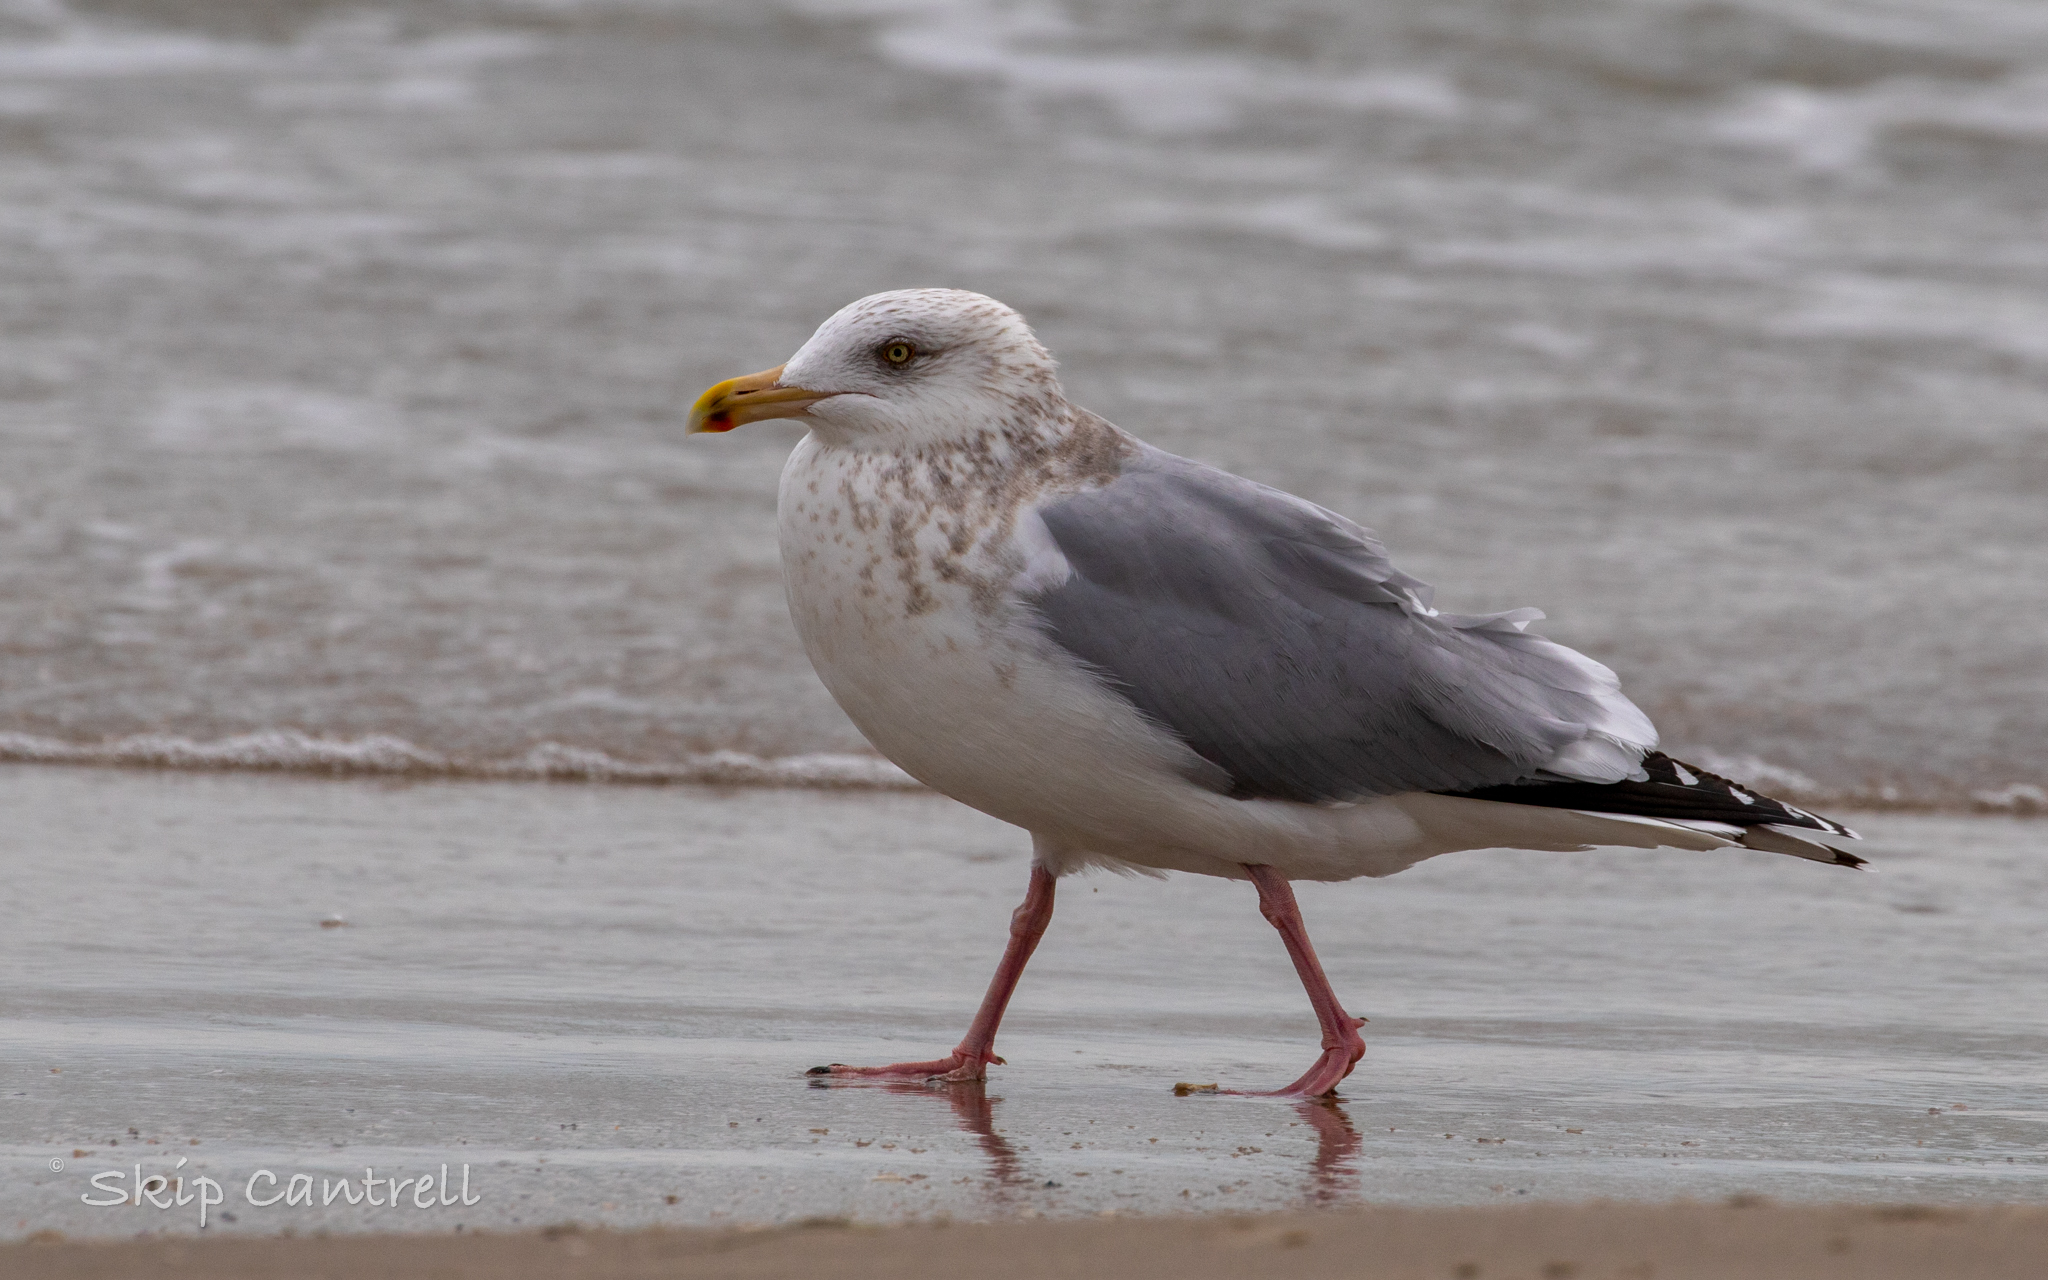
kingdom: Animalia
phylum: Chordata
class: Aves
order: Charadriiformes
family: Laridae
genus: Larus
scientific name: Larus argentatus
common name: Herring gull
